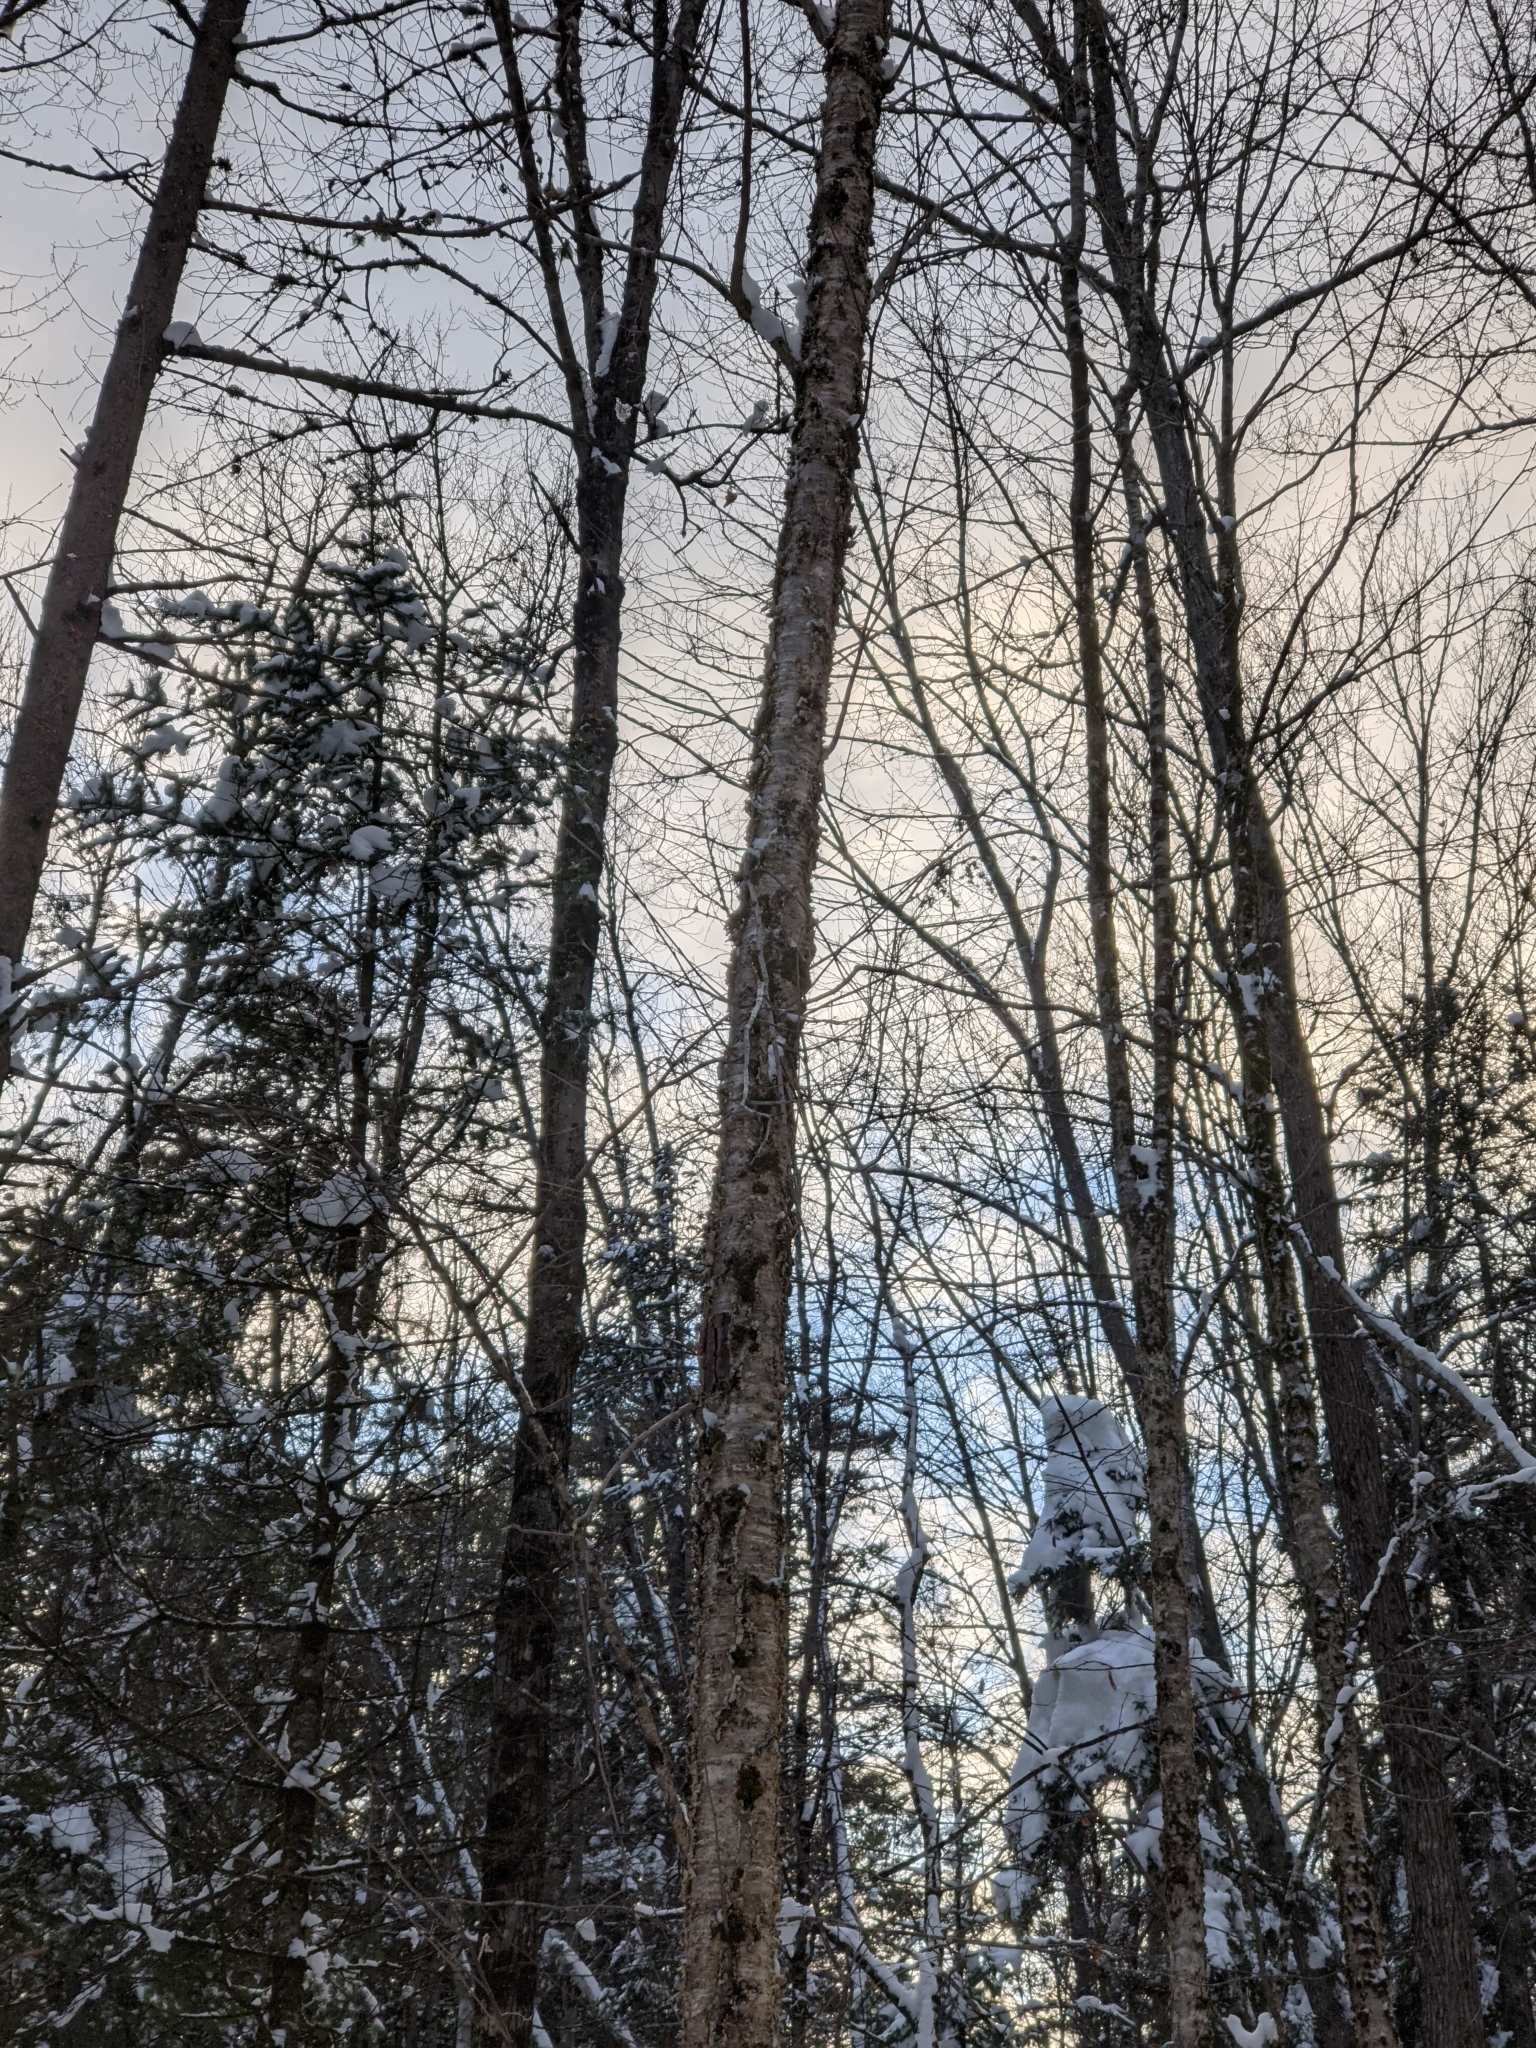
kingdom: Plantae
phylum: Tracheophyta
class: Magnoliopsida
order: Fagales
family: Betulaceae
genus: Betula
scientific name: Betula alleghaniensis
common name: Yellow birch
